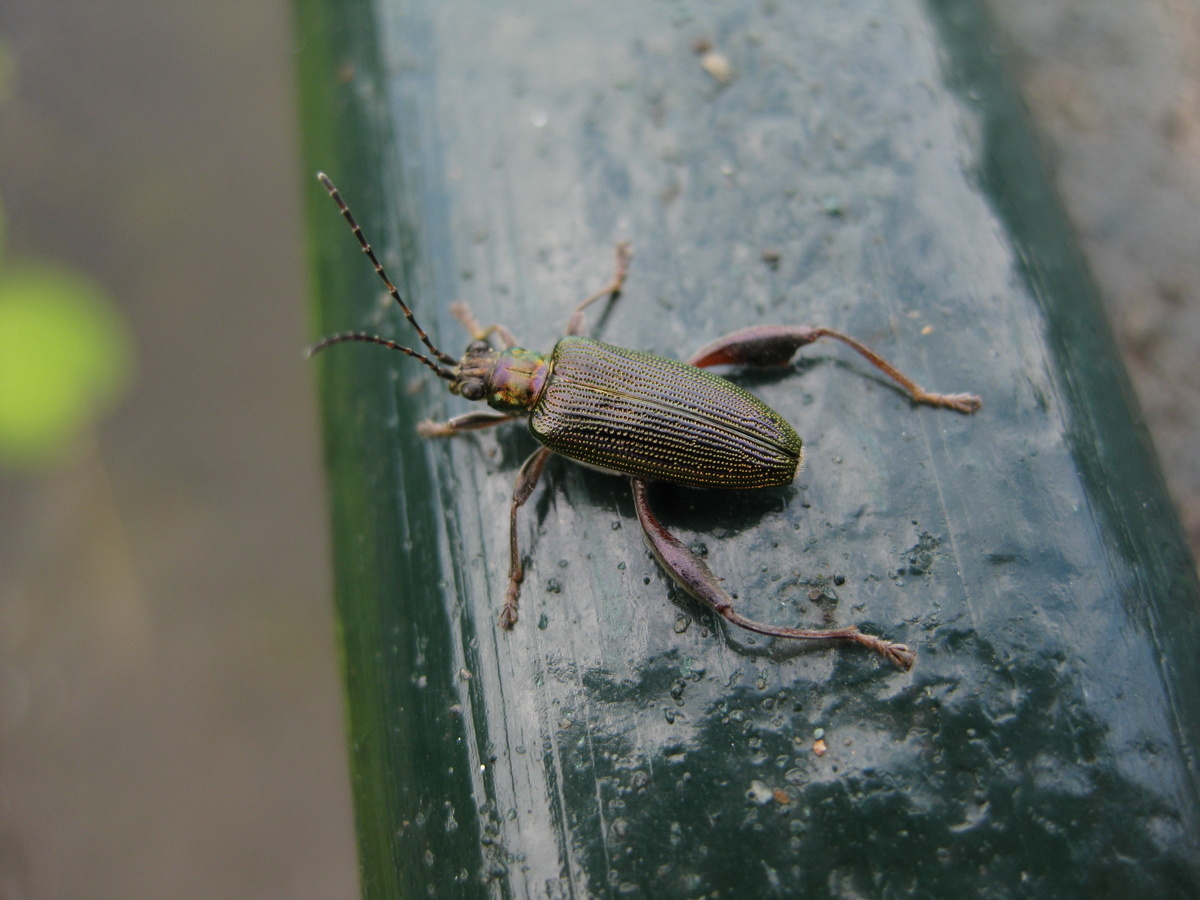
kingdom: Animalia
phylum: Arthropoda
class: Insecta
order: Coleoptera
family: Chrysomelidae
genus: Donacia
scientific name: Donacia crassipes
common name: Water-lily reed beetle
